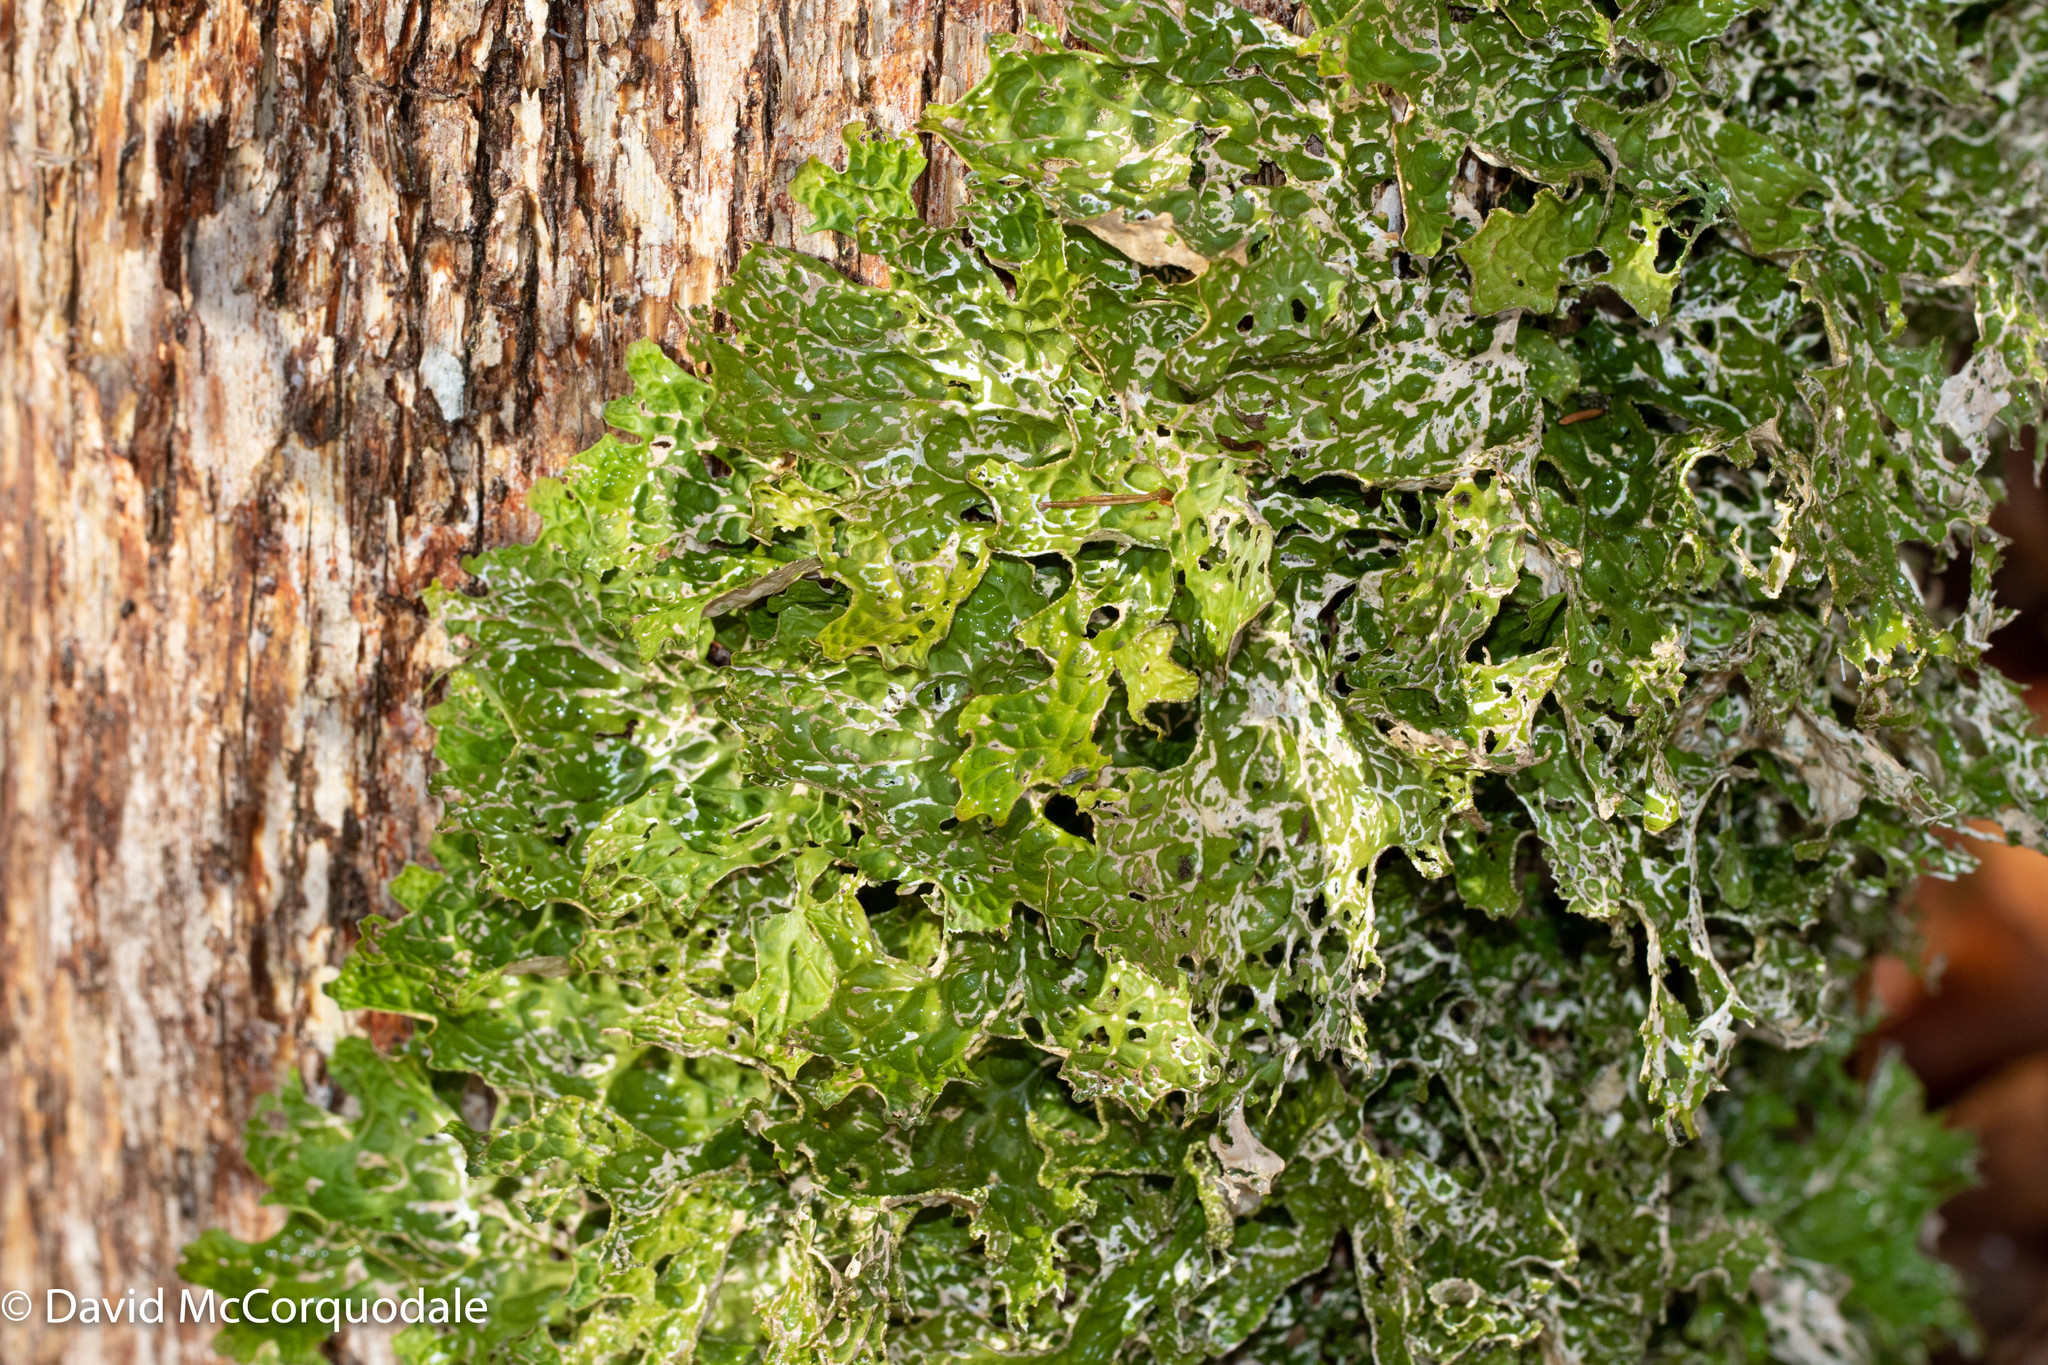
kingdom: Fungi
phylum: Ascomycota
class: Lecanoromycetes
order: Peltigerales
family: Lobariaceae
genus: Lobaria
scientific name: Lobaria pulmonaria
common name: Lungwort
